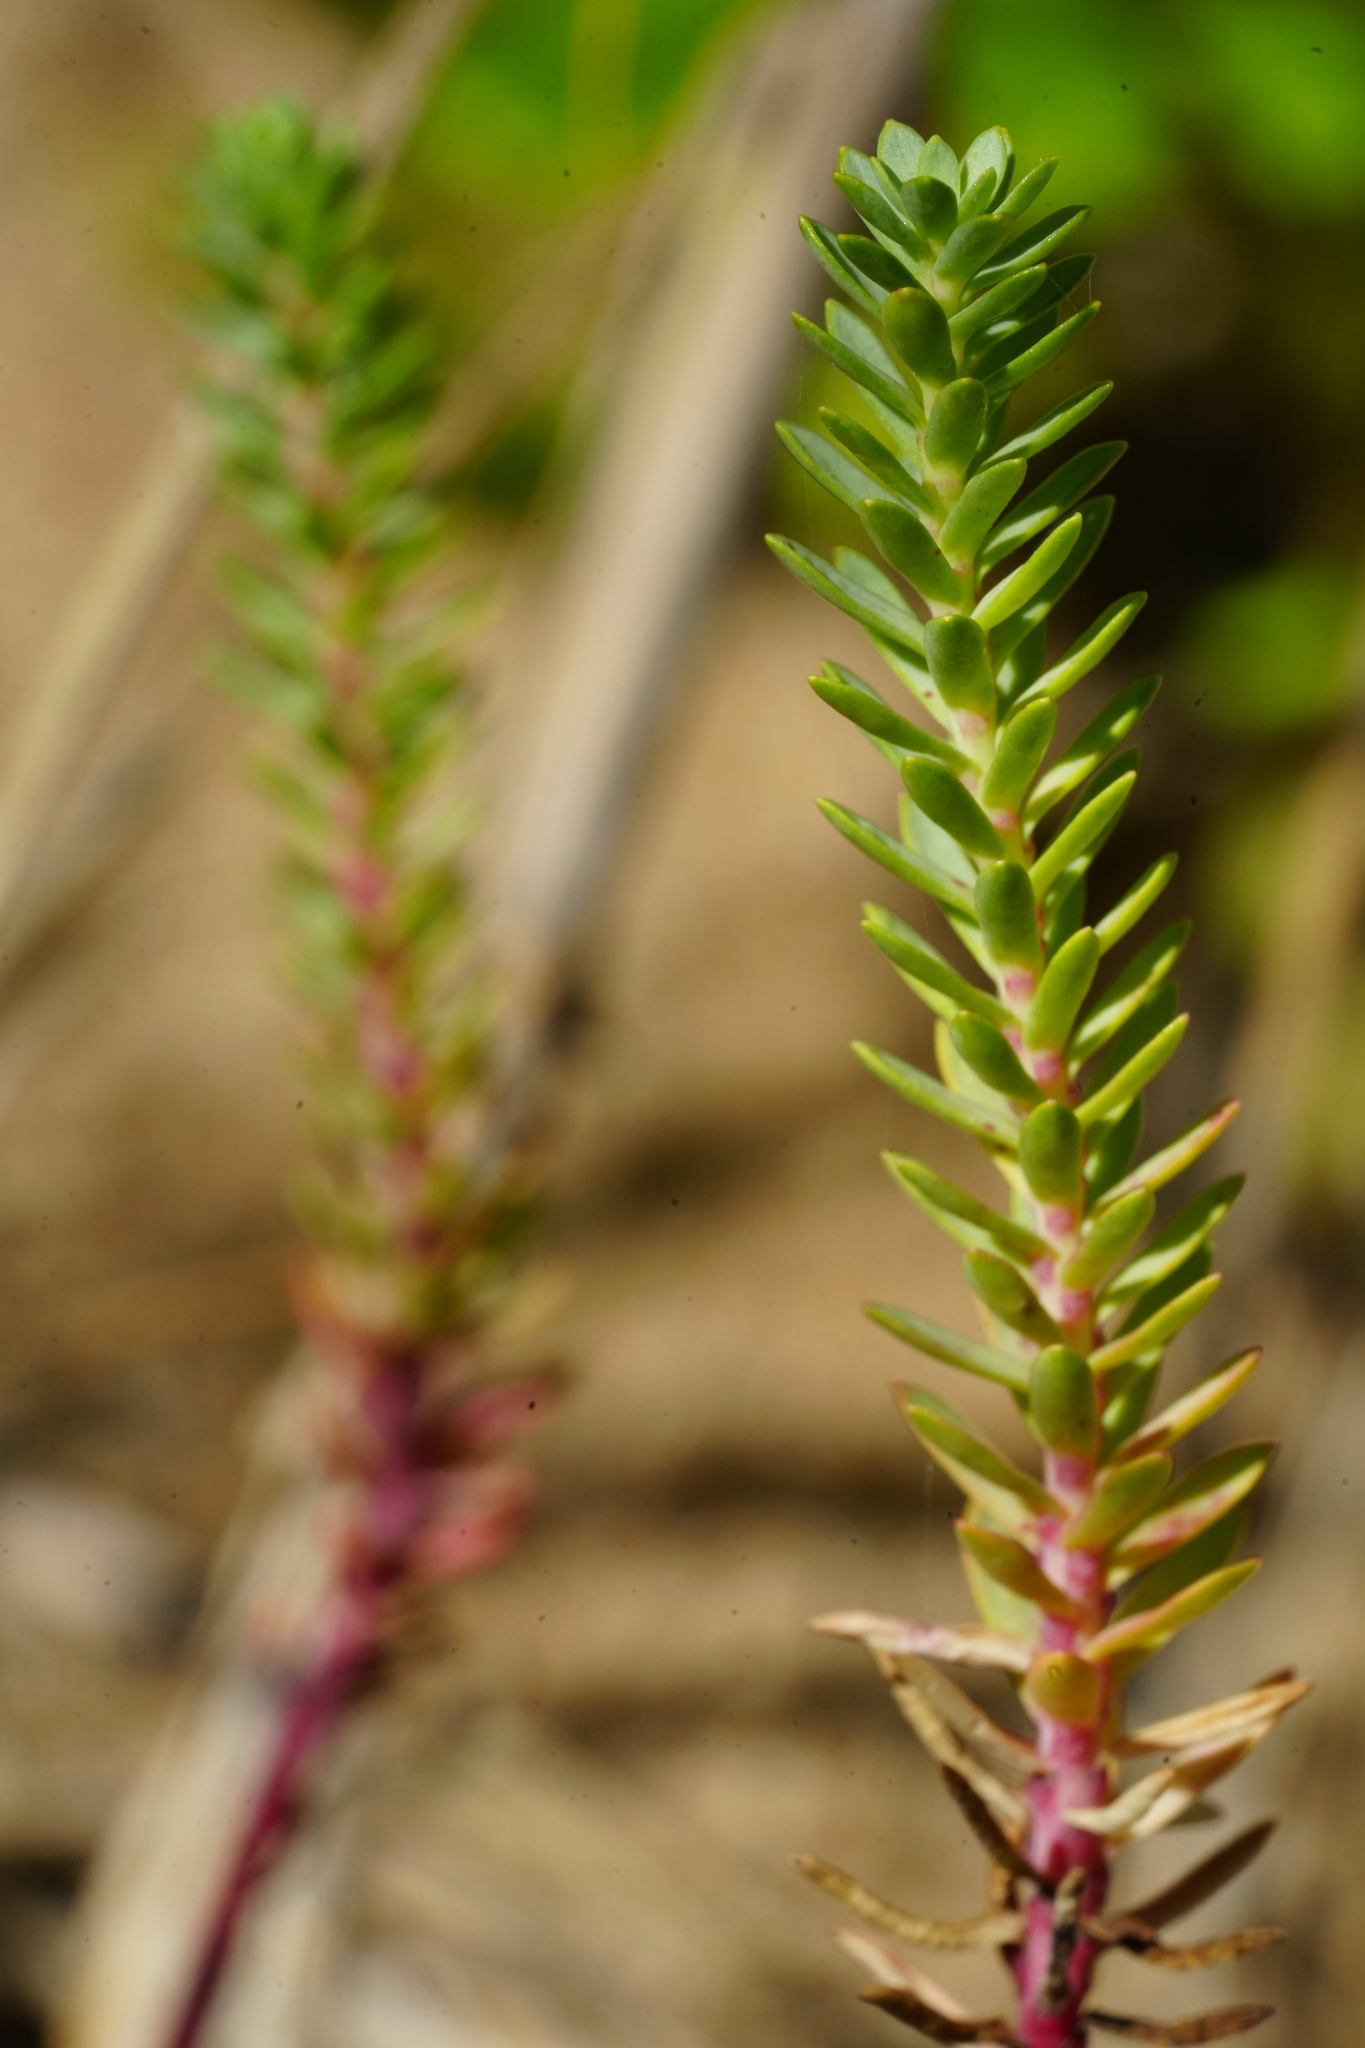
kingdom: Plantae
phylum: Tracheophyta
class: Magnoliopsida
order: Malpighiales
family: Euphorbiaceae
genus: Euphorbia
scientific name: Euphorbia paralias
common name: Sea spurge
